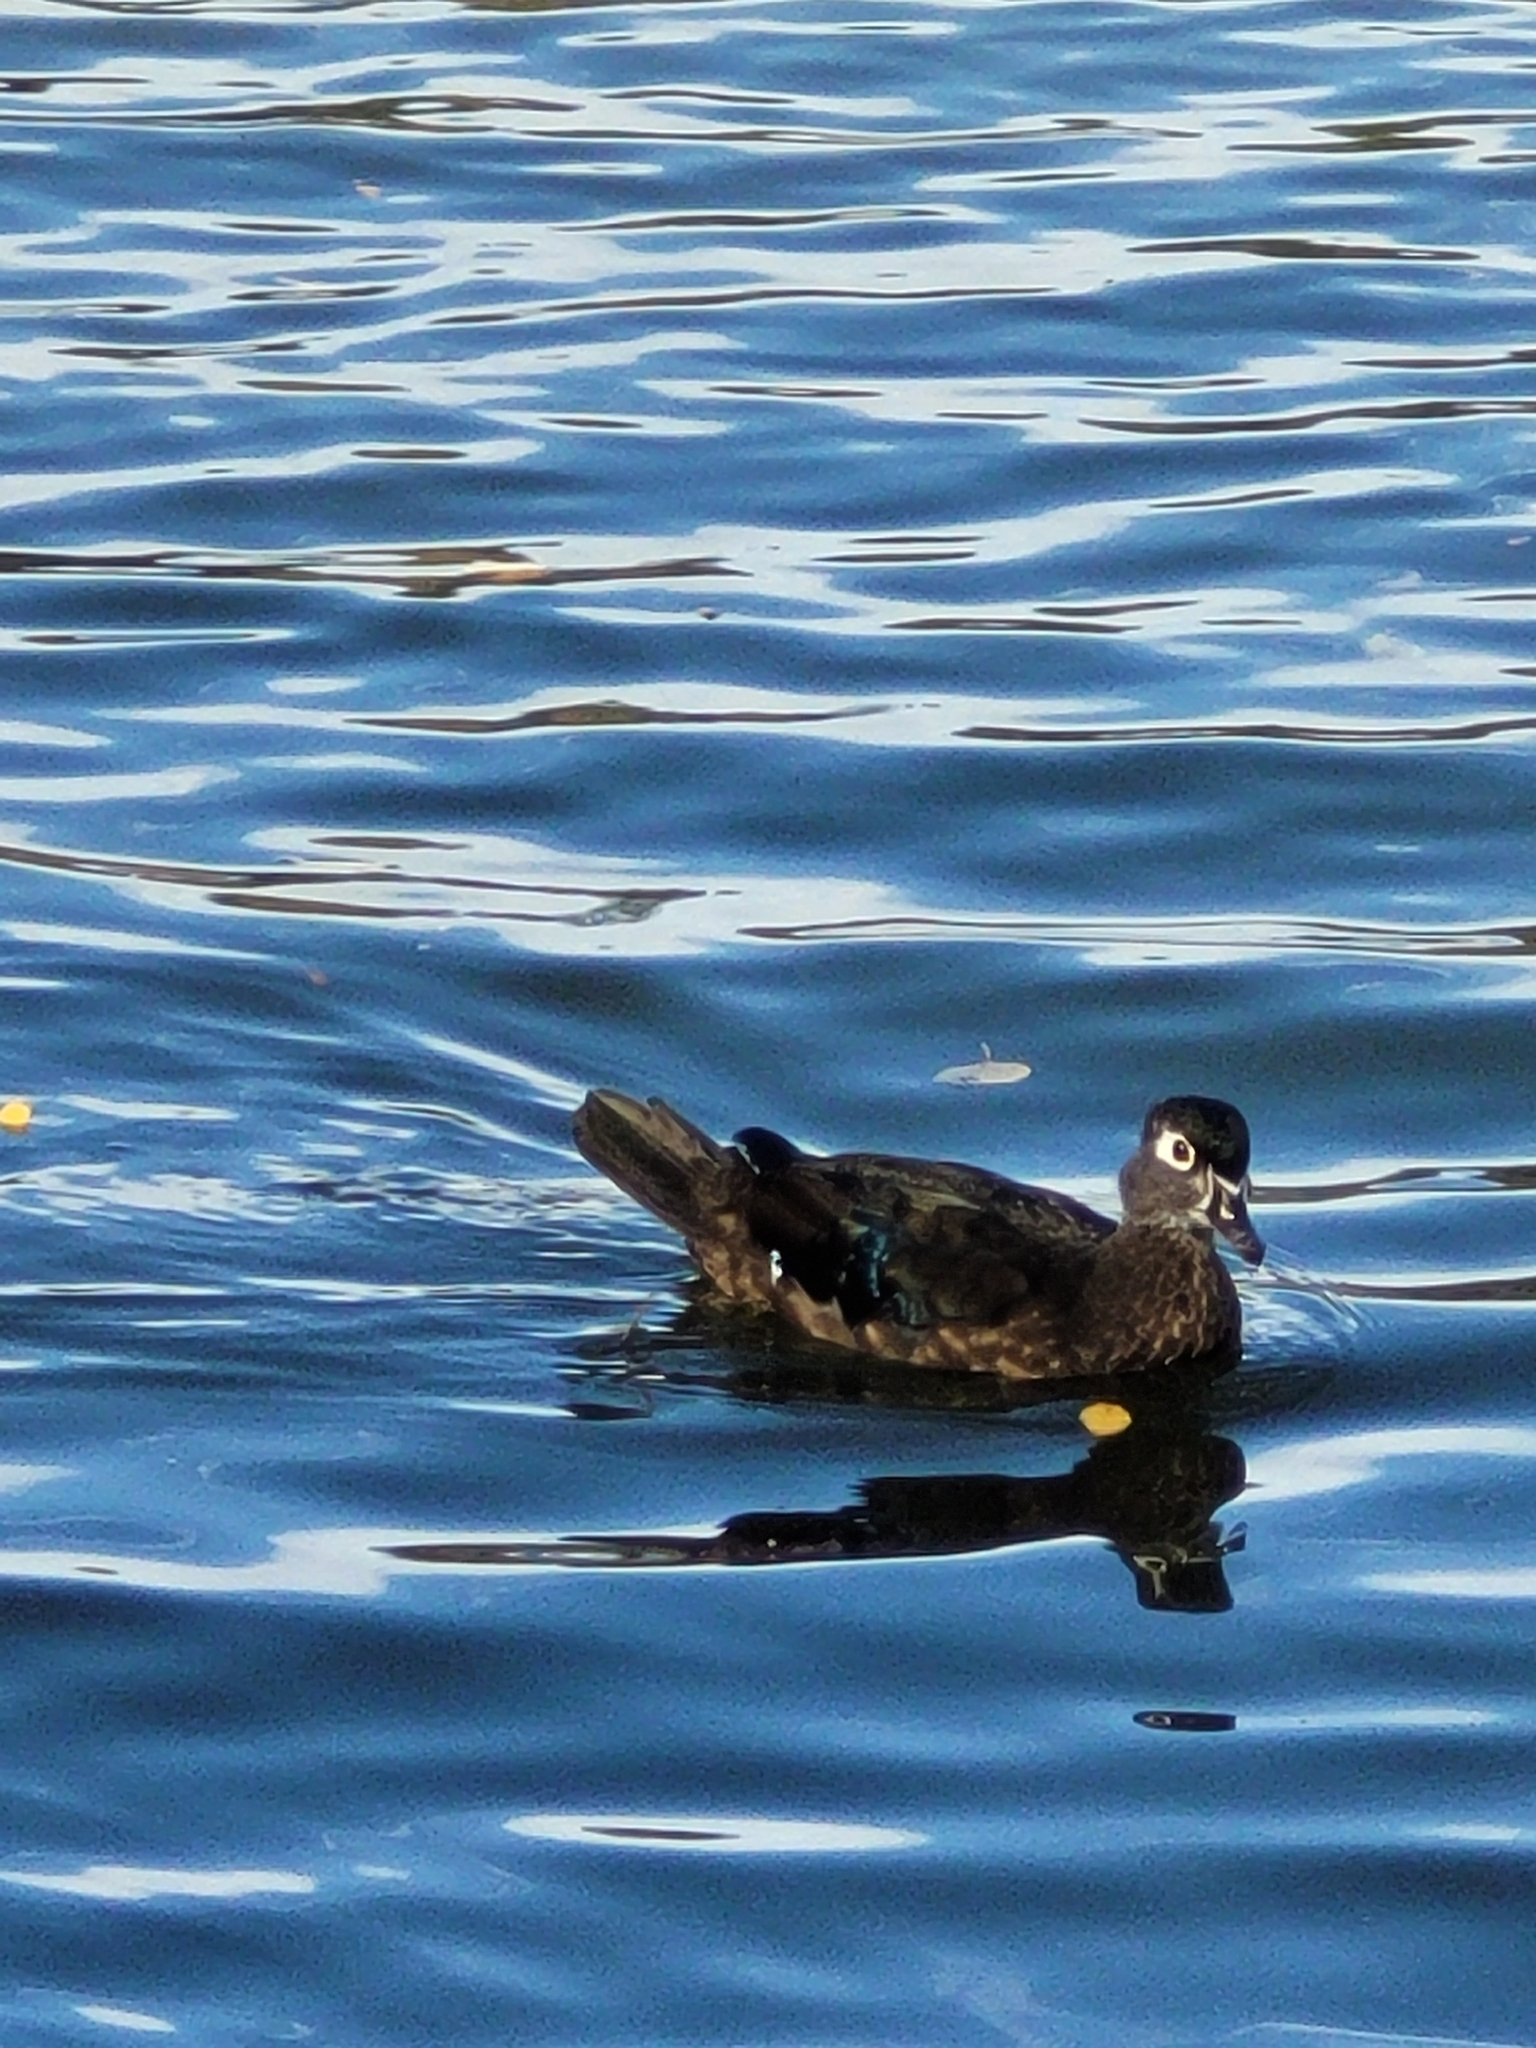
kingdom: Animalia
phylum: Chordata
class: Aves
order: Anseriformes
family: Anatidae
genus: Aix
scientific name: Aix sponsa
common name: Wood duck
